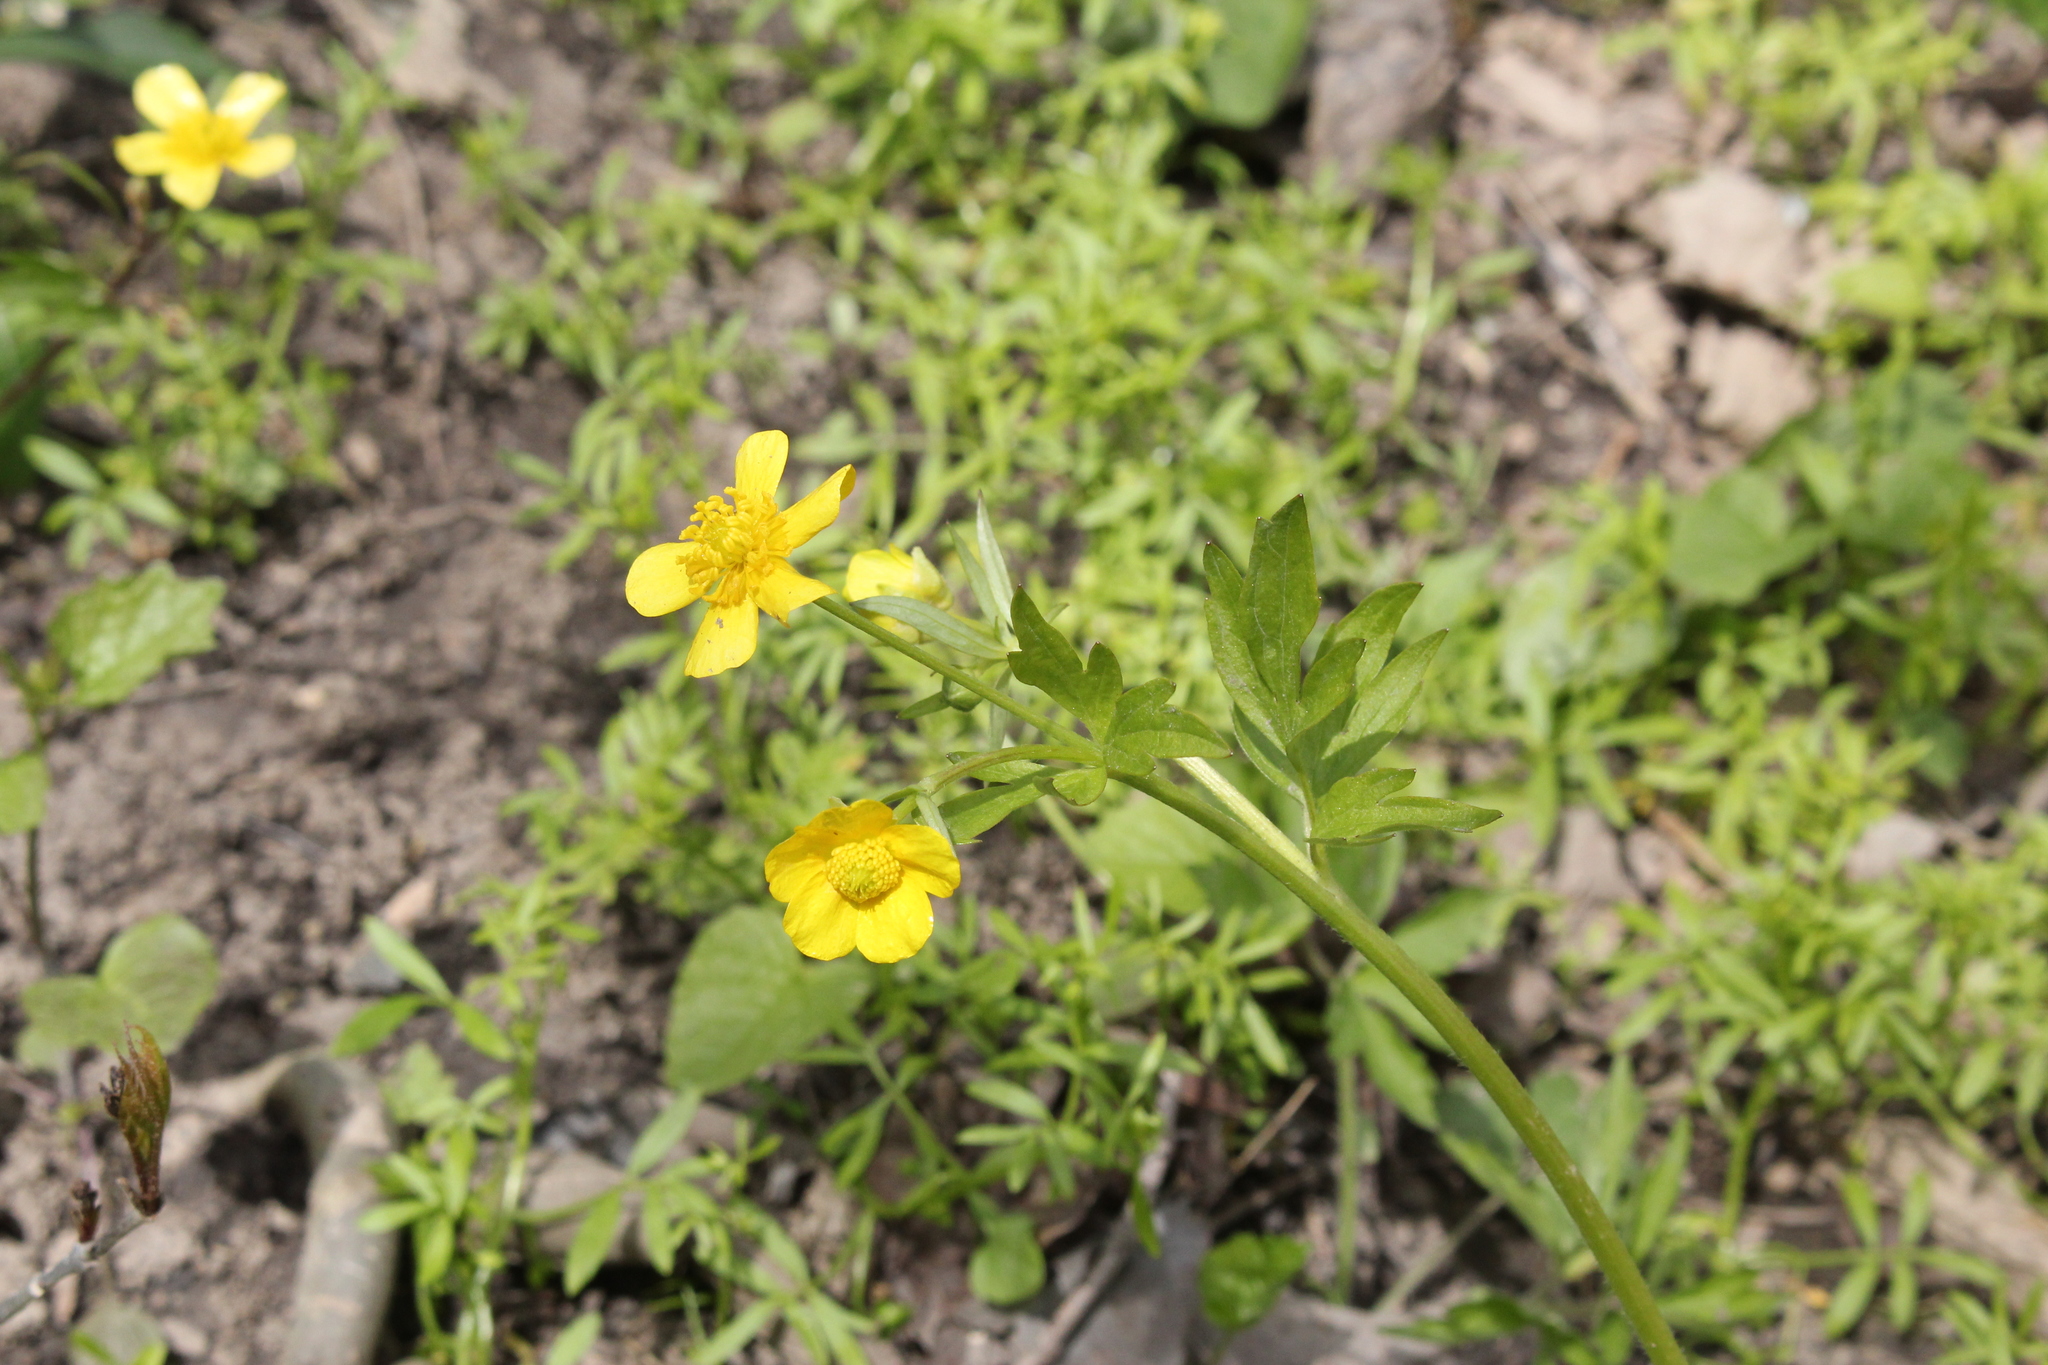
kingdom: Plantae
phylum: Tracheophyta
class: Magnoliopsida
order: Ranunculales
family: Ranunculaceae
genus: Ranunculus
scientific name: Ranunculus hispidus
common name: Bristly buttercup
